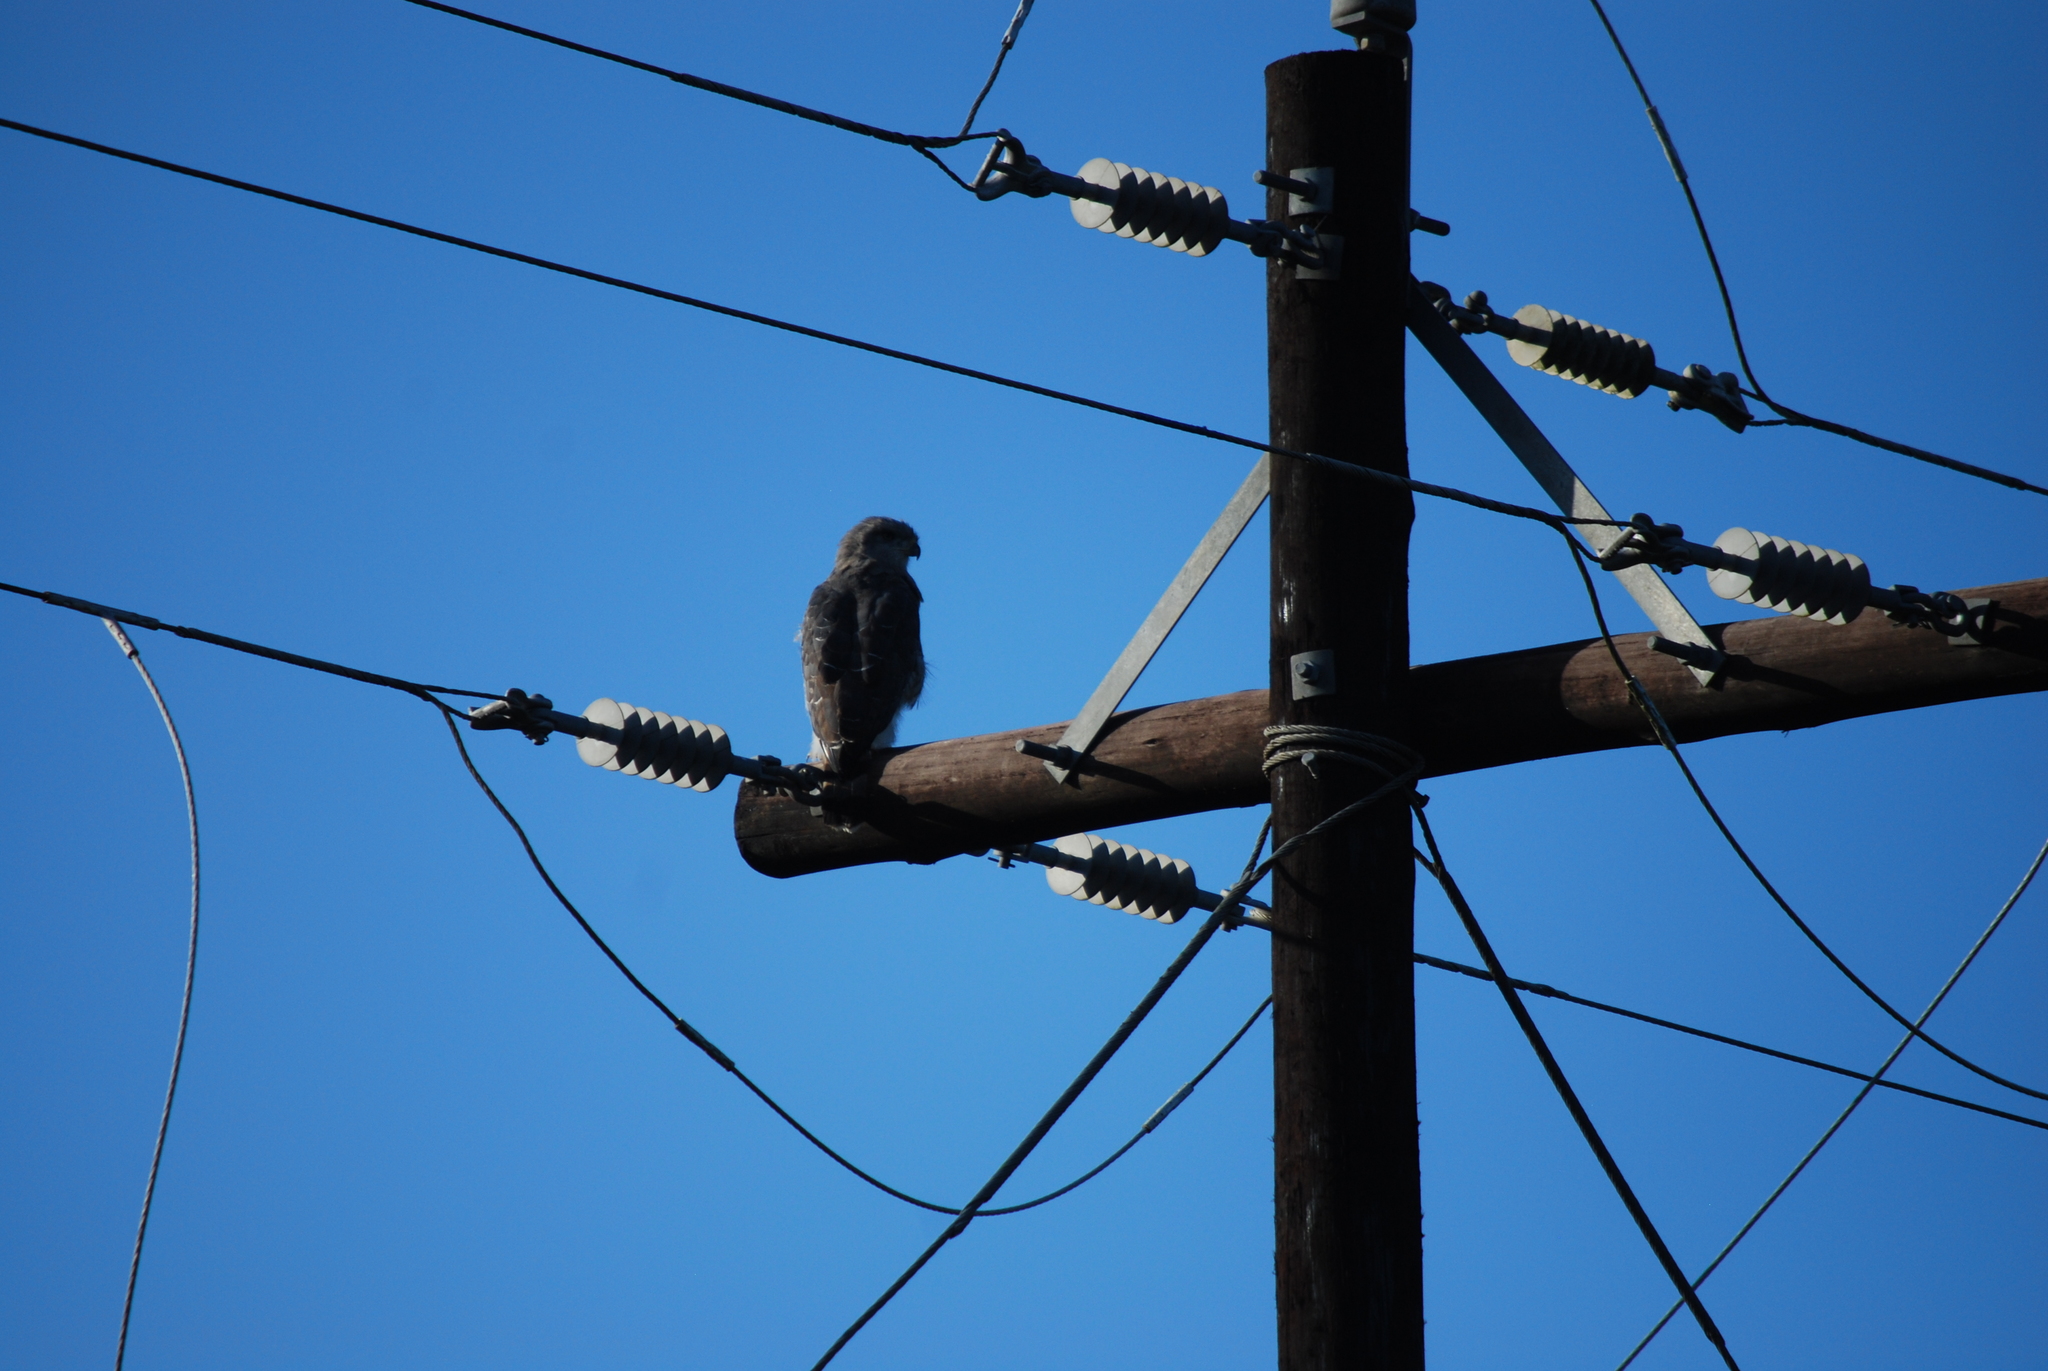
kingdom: Animalia
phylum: Chordata
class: Aves
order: Accipitriformes
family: Accipitridae
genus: Circaetus
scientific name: Circaetus fasciolatus
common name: Southern banded snake eagle
